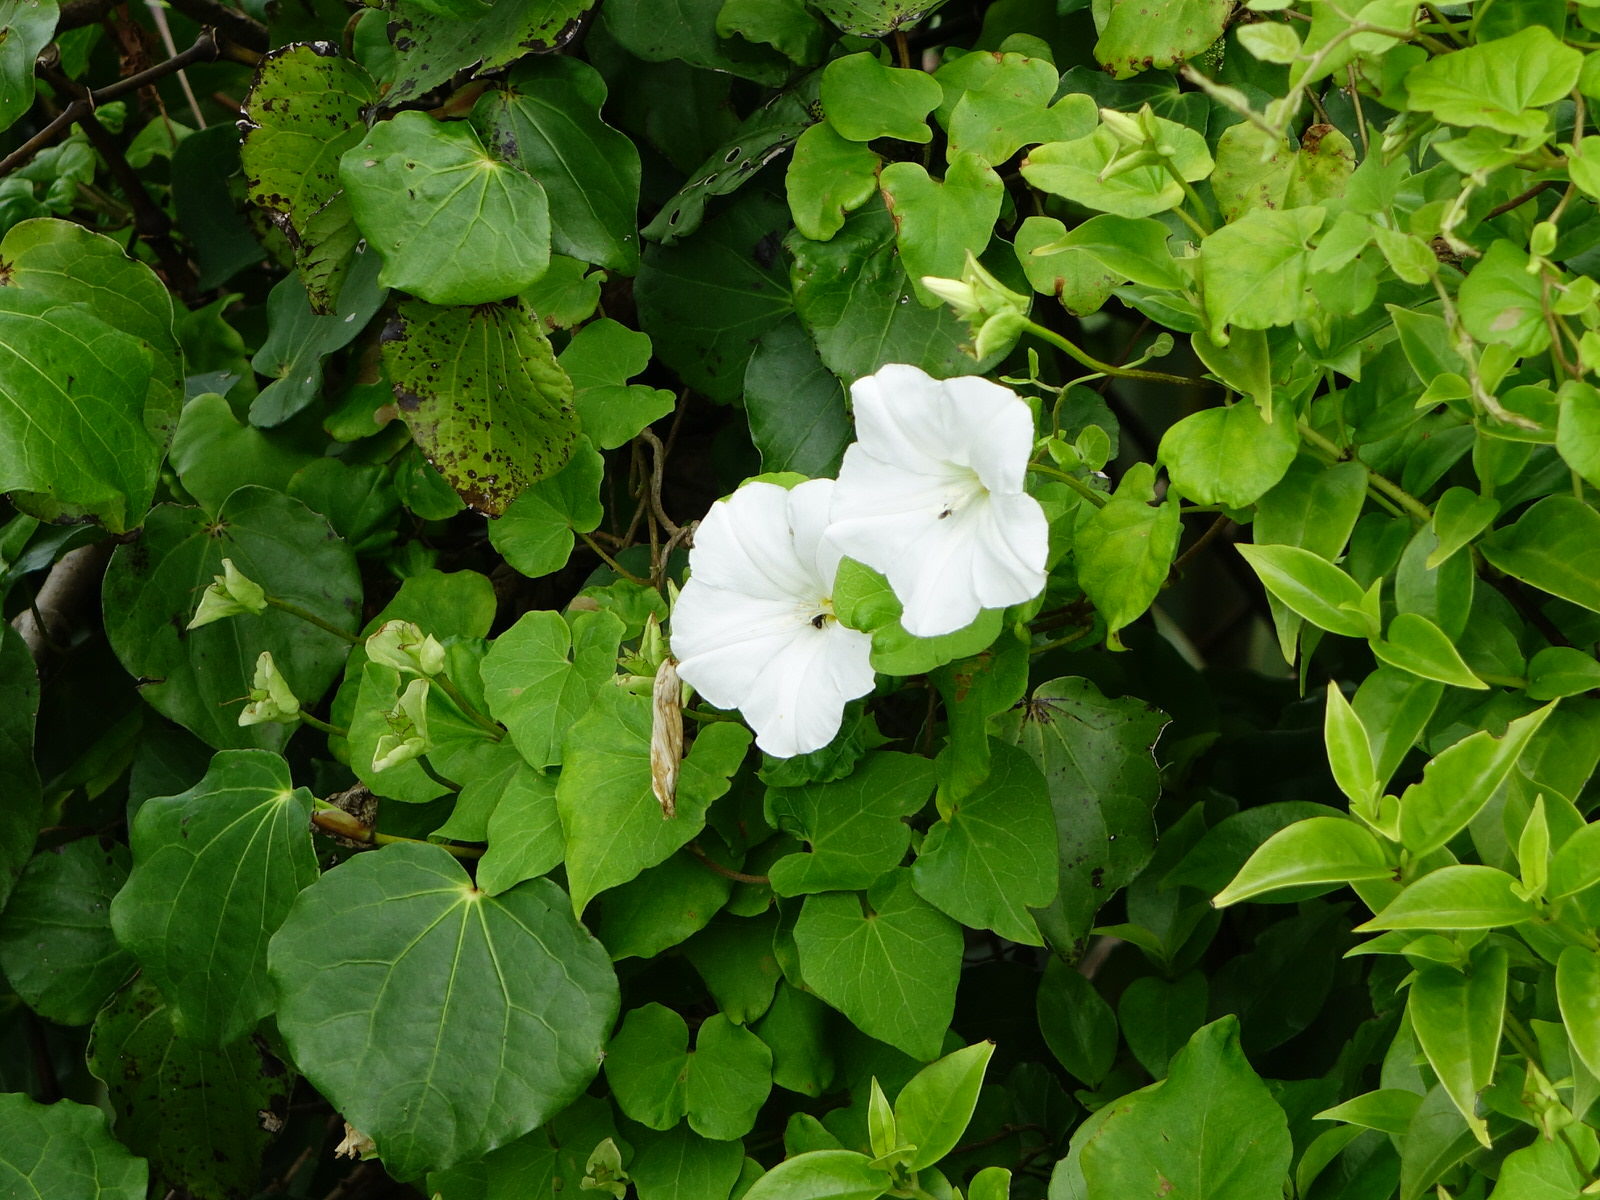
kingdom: Plantae
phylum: Tracheophyta
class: Magnoliopsida
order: Solanales
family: Convolvulaceae
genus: Calystegia
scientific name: Calystegia tuguriorum
